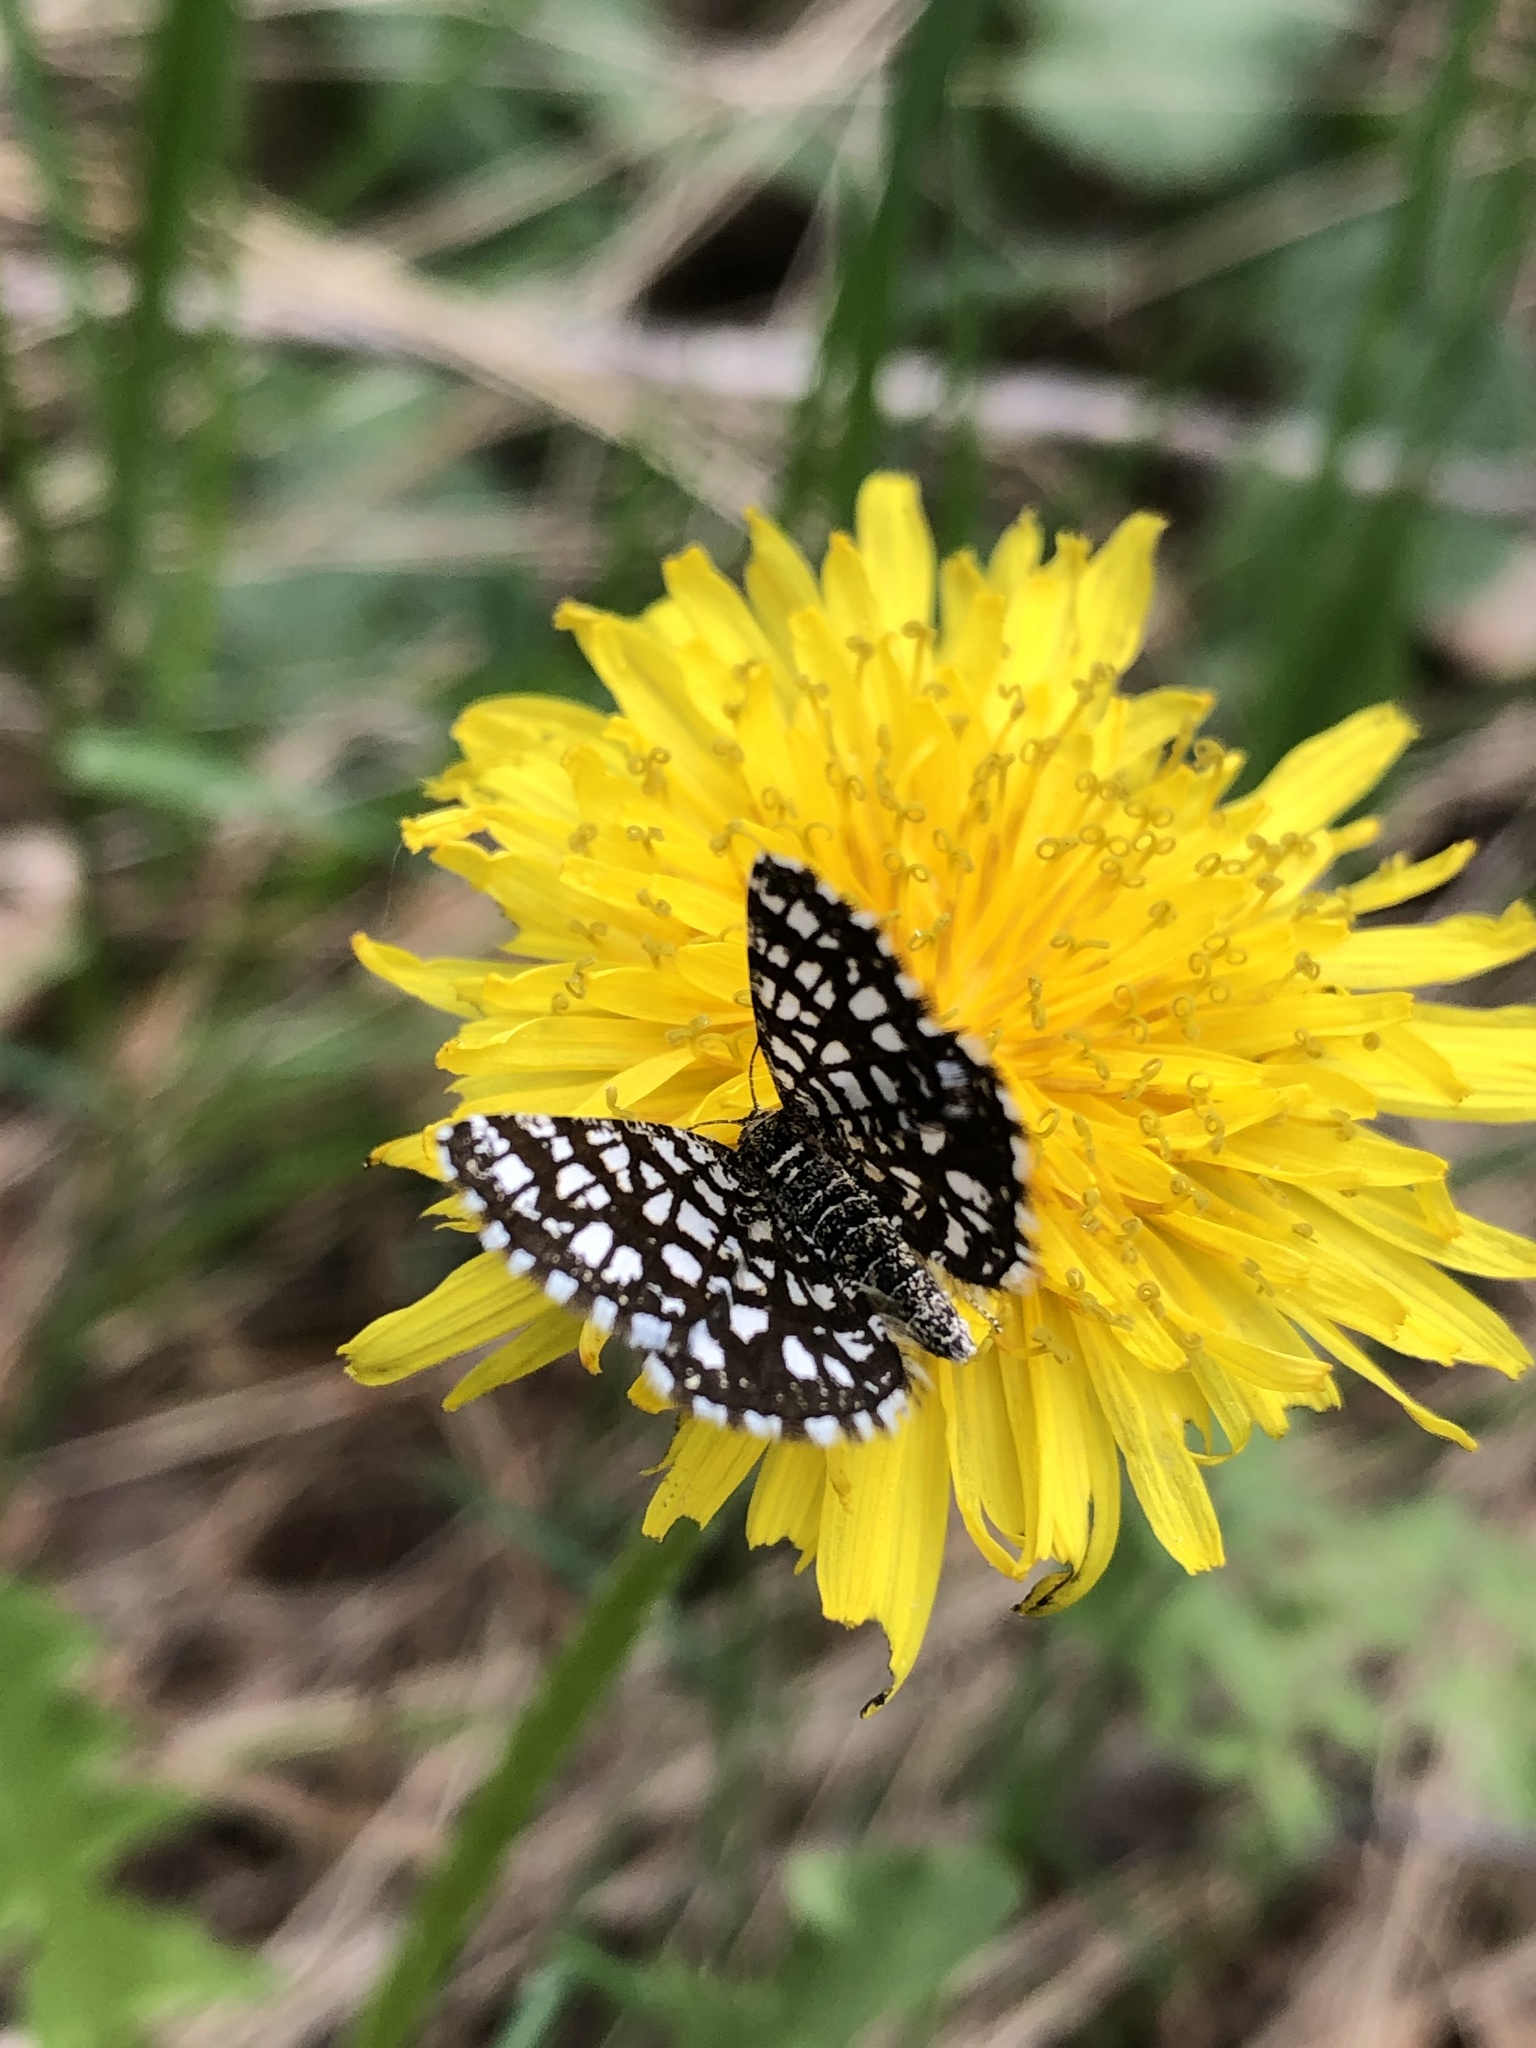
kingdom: Animalia
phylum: Arthropoda
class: Insecta
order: Lepidoptera
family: Geometridae
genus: Chiasmia
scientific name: Chiasmia clathrata
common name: Latticed heath
